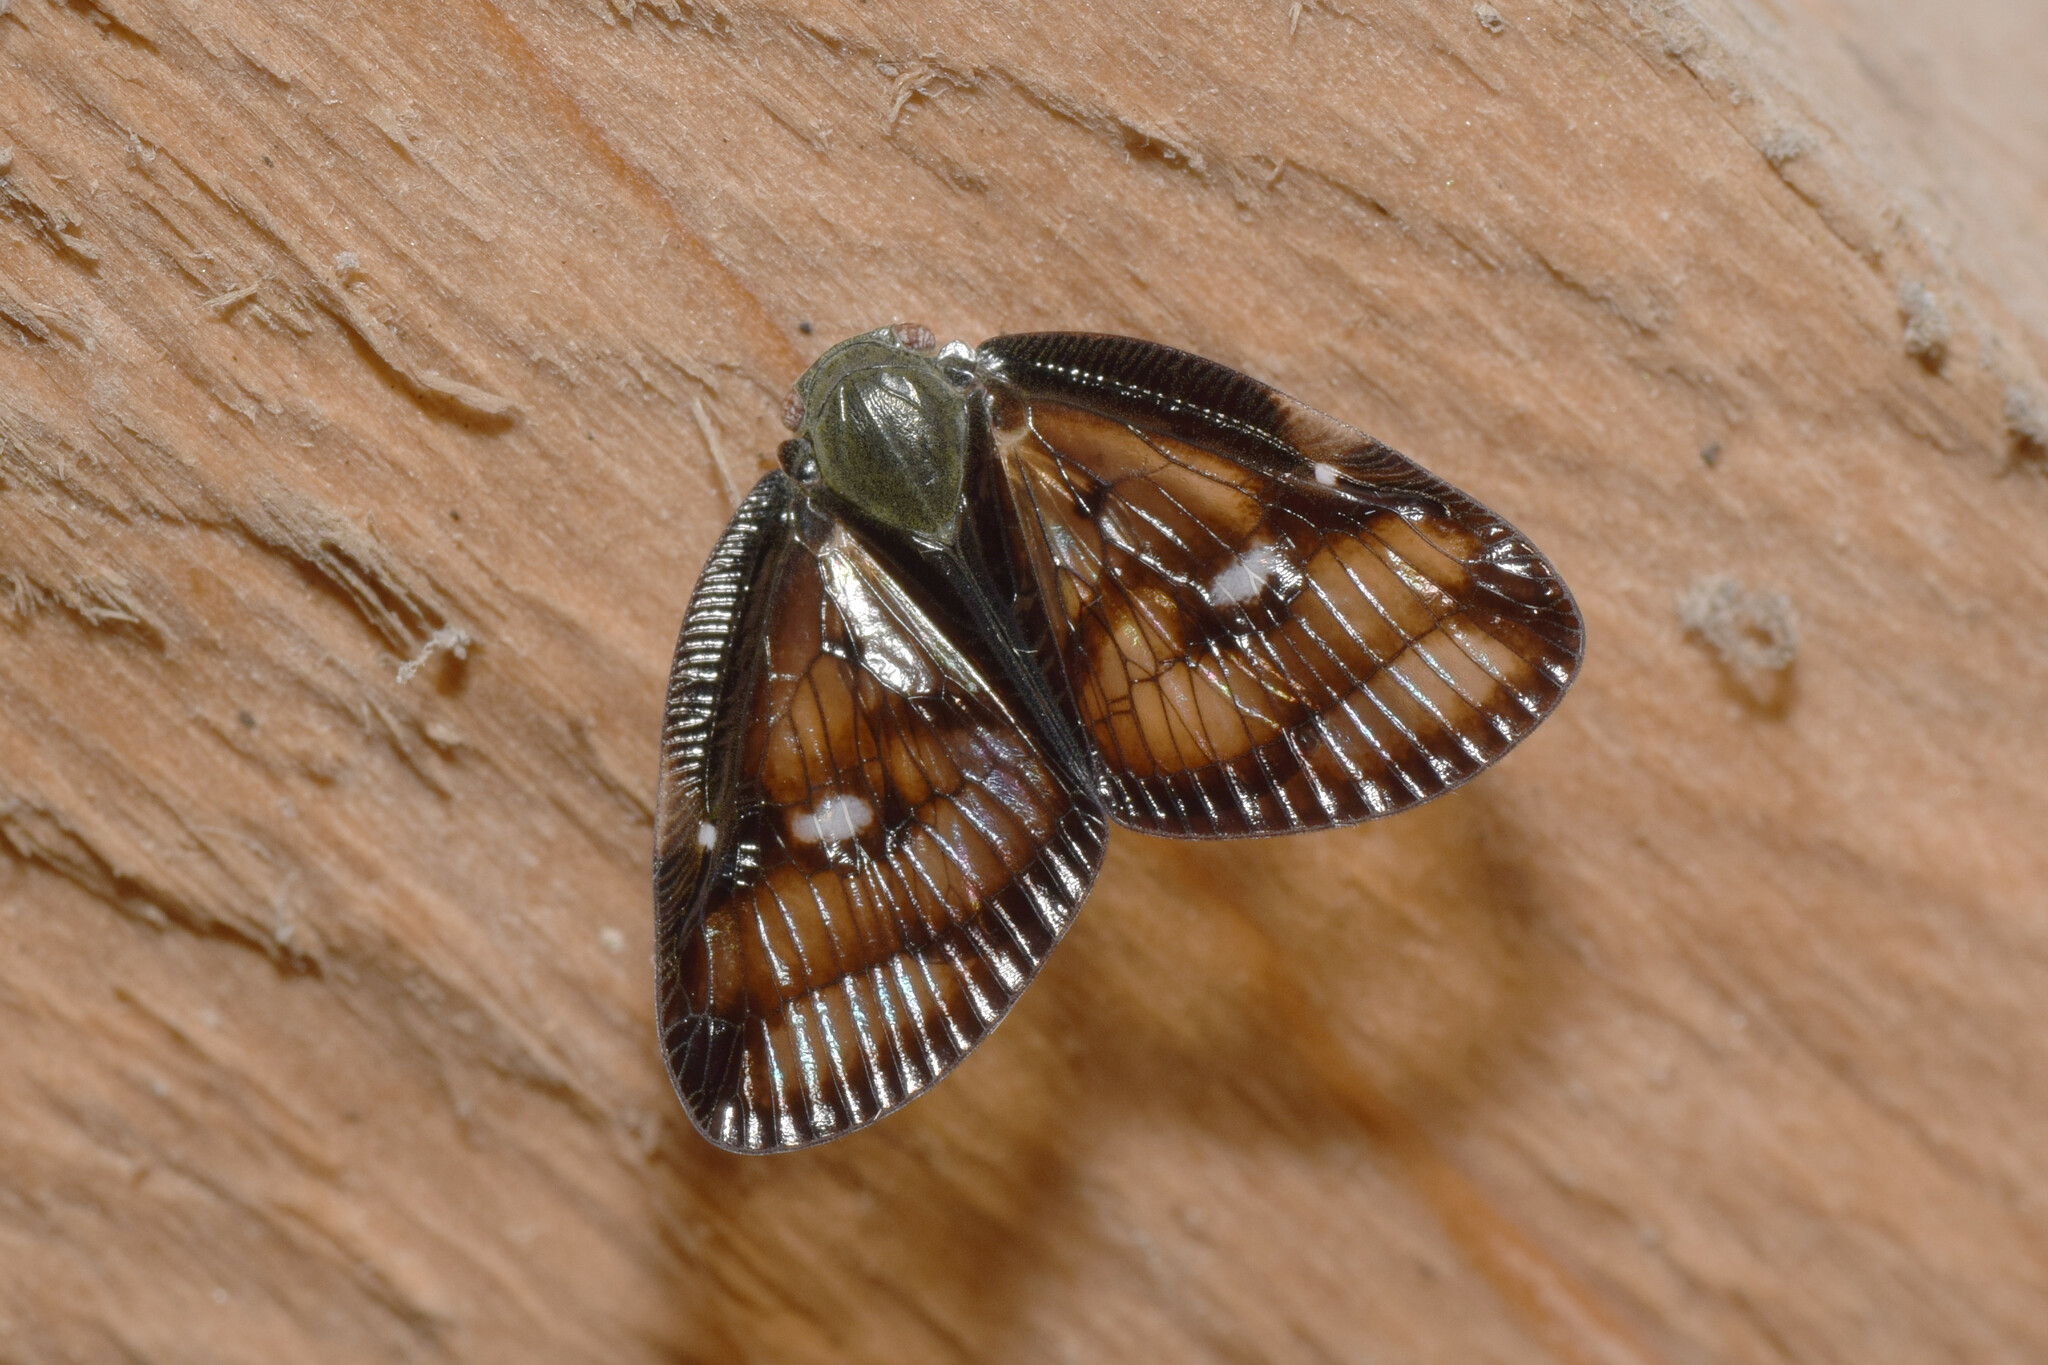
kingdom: Animalia
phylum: Arthropoda
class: Insecta
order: Hemiptera
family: Ricaniidae
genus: Euricania
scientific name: Euricania ocella
